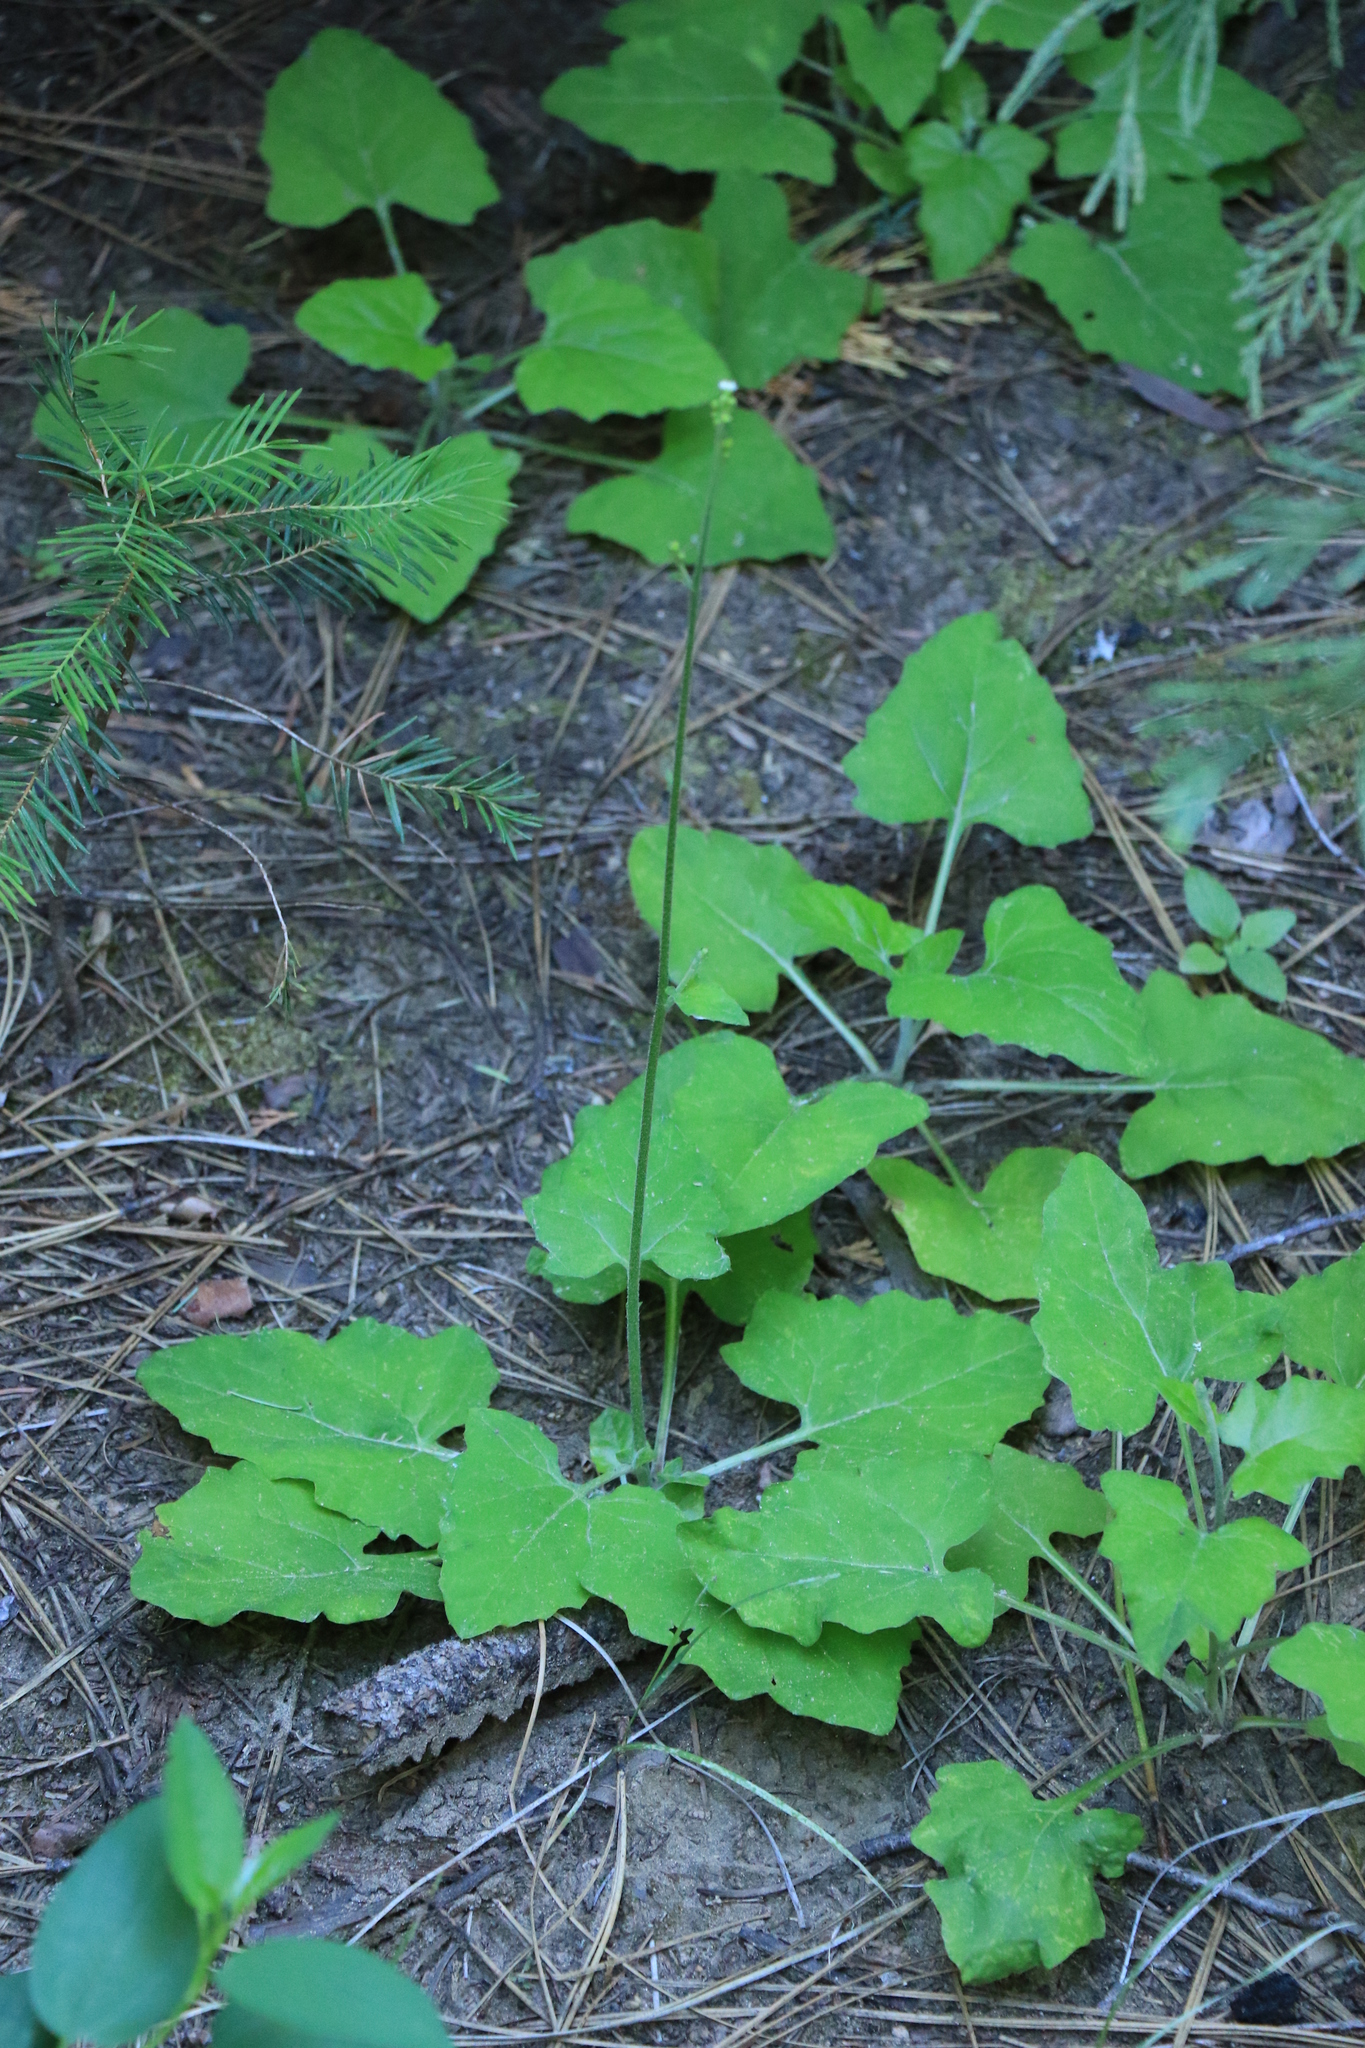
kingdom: Plantae
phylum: Tracheophyta
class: Magnoliopsida
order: Asterales
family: Asteraceae
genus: Adenocaulon
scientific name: Adenocaulon bicolor
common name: Trailplant
